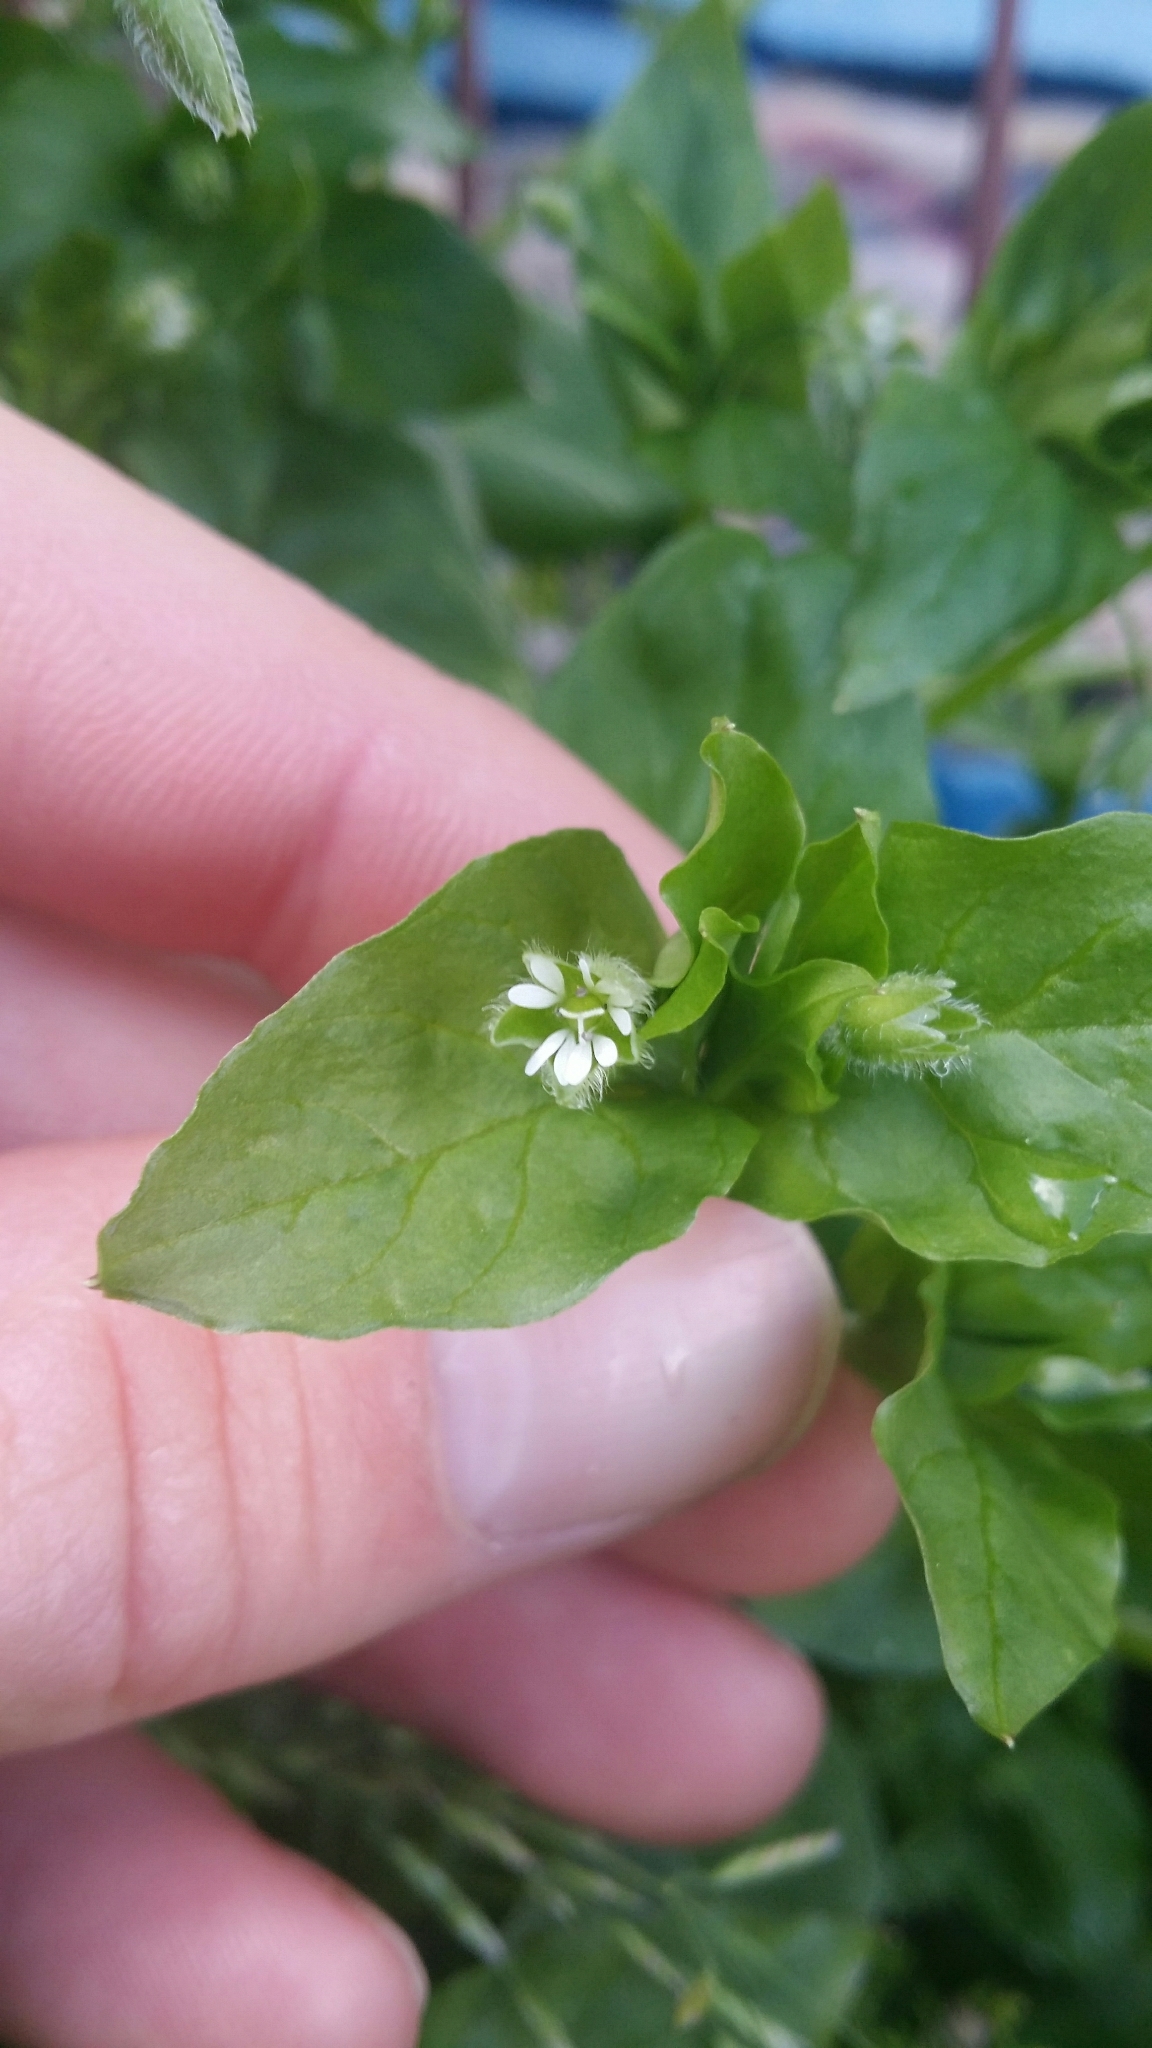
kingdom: Plantae
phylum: Tracheophyta
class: Magnoliopsida
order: Caryophyllales
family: Caryophyllaceae
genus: Stellaria
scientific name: Stellaria media
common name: Common chickweed
